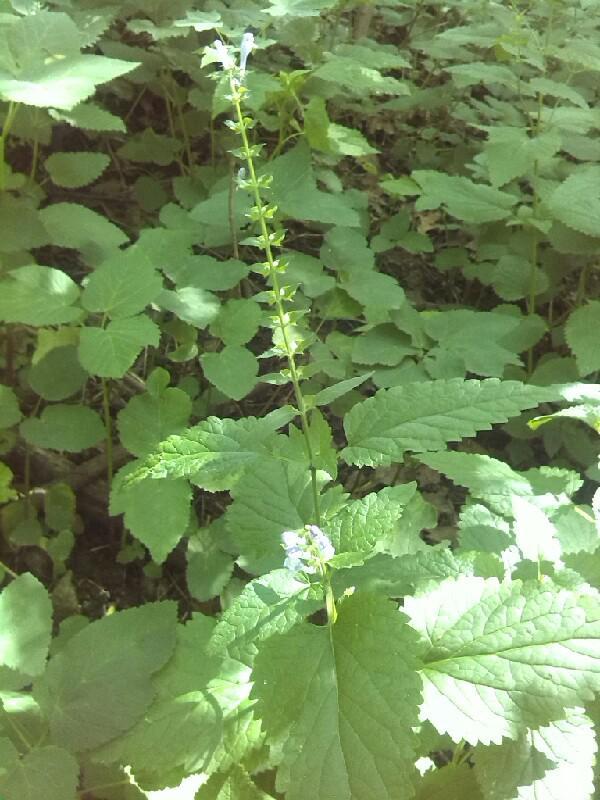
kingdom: Plantae
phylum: Tracheophyta
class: Magnoliopsida
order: Lamiales
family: Lamiaceae
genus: Scutellaria
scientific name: Scutellaria altissima
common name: Somerset skullcap
